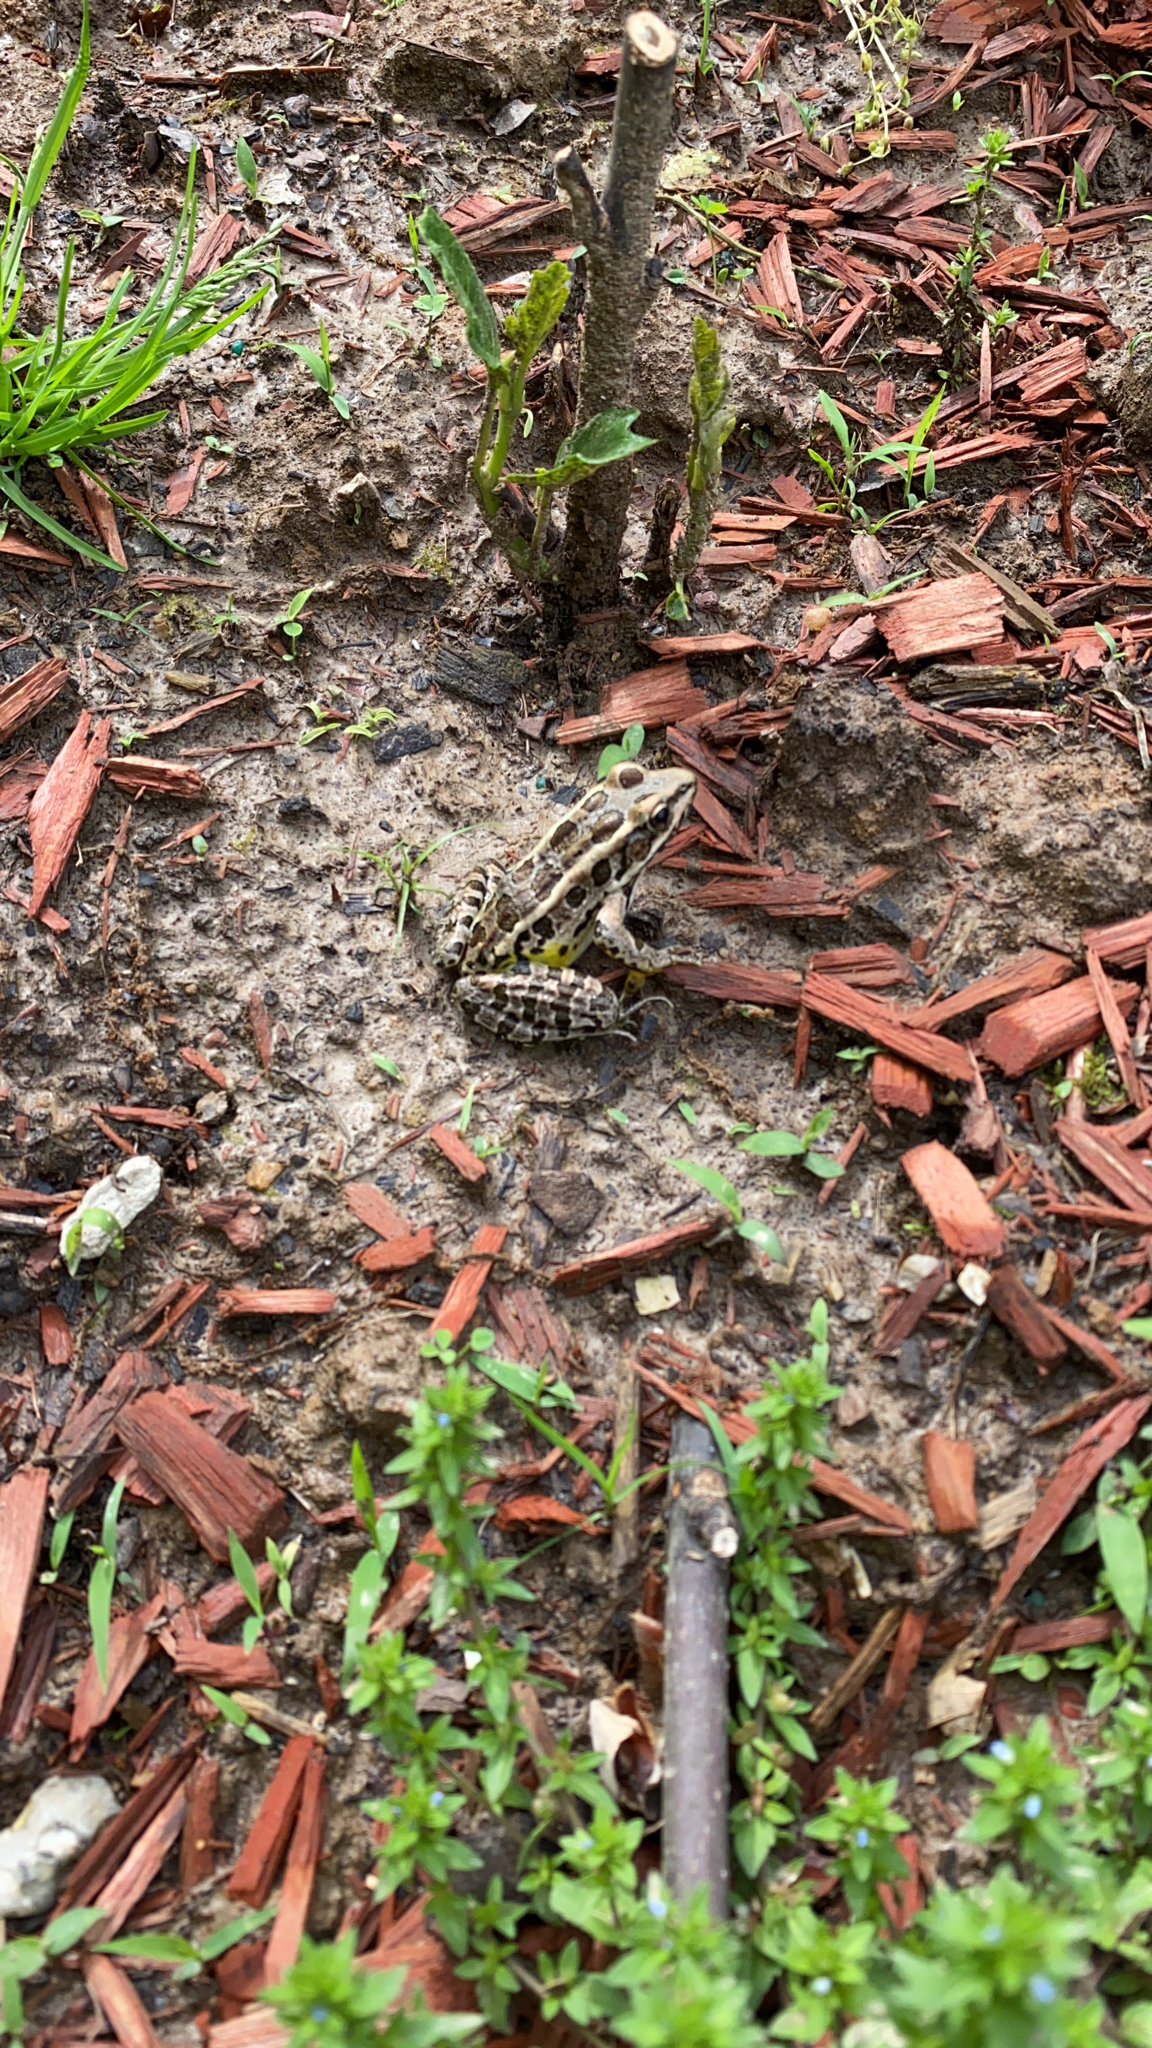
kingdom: Animalia
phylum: Chordata
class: Amphibia
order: Anura
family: Ranidae
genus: Lithobates
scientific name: Lithobates palustris
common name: Pickerel frog
